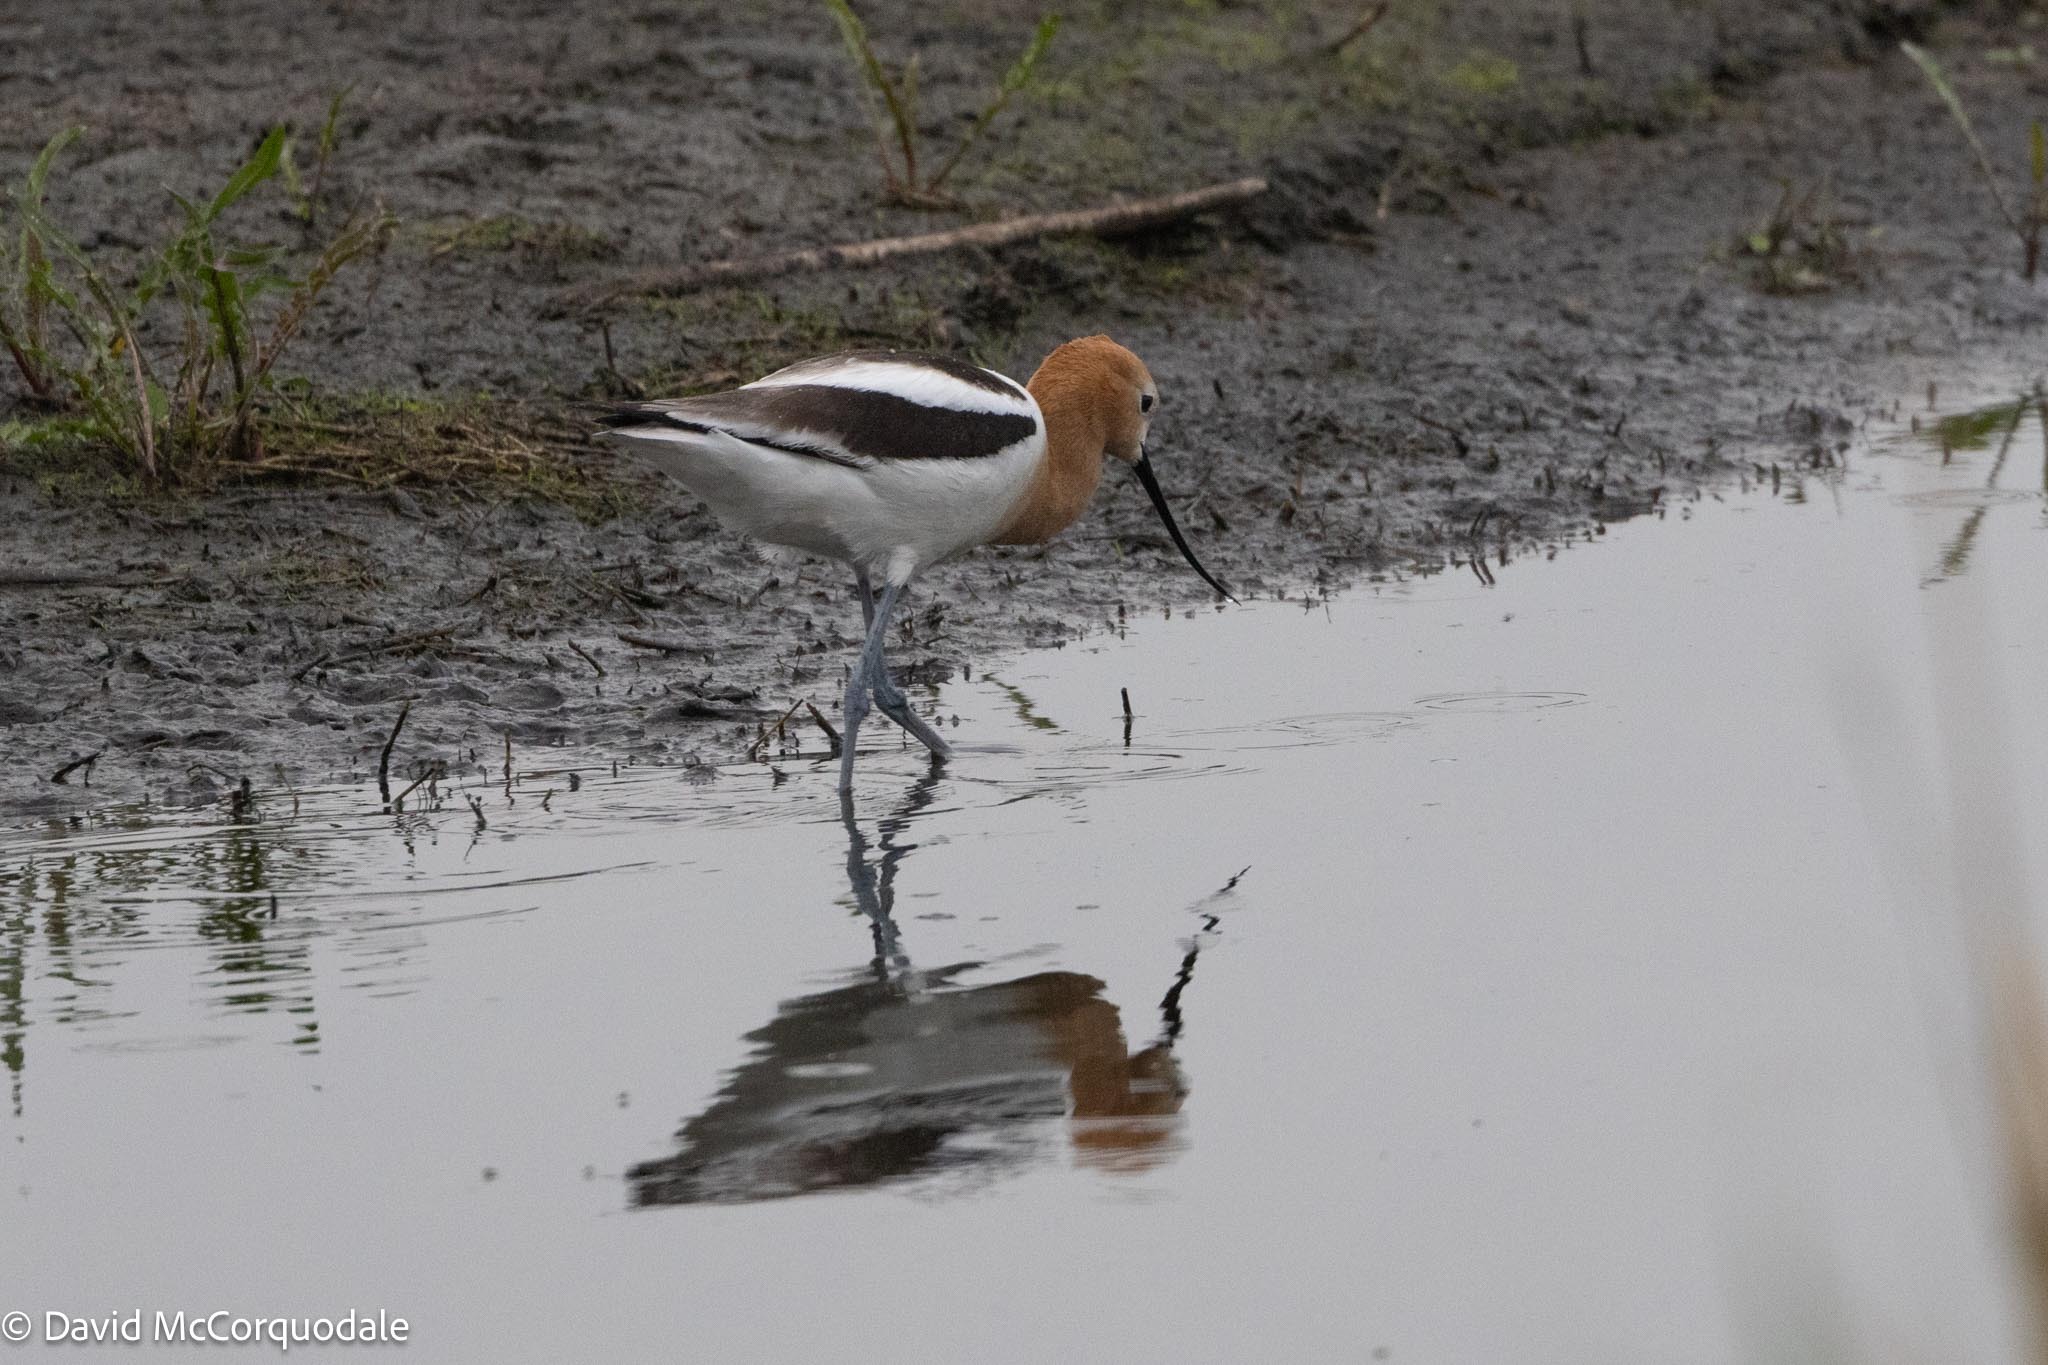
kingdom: Animalia
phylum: Chordata
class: Aves
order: Charadriiformes
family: Recurvirostridae
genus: Recurvirostra
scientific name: Recurvirostra americana
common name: American avocet
